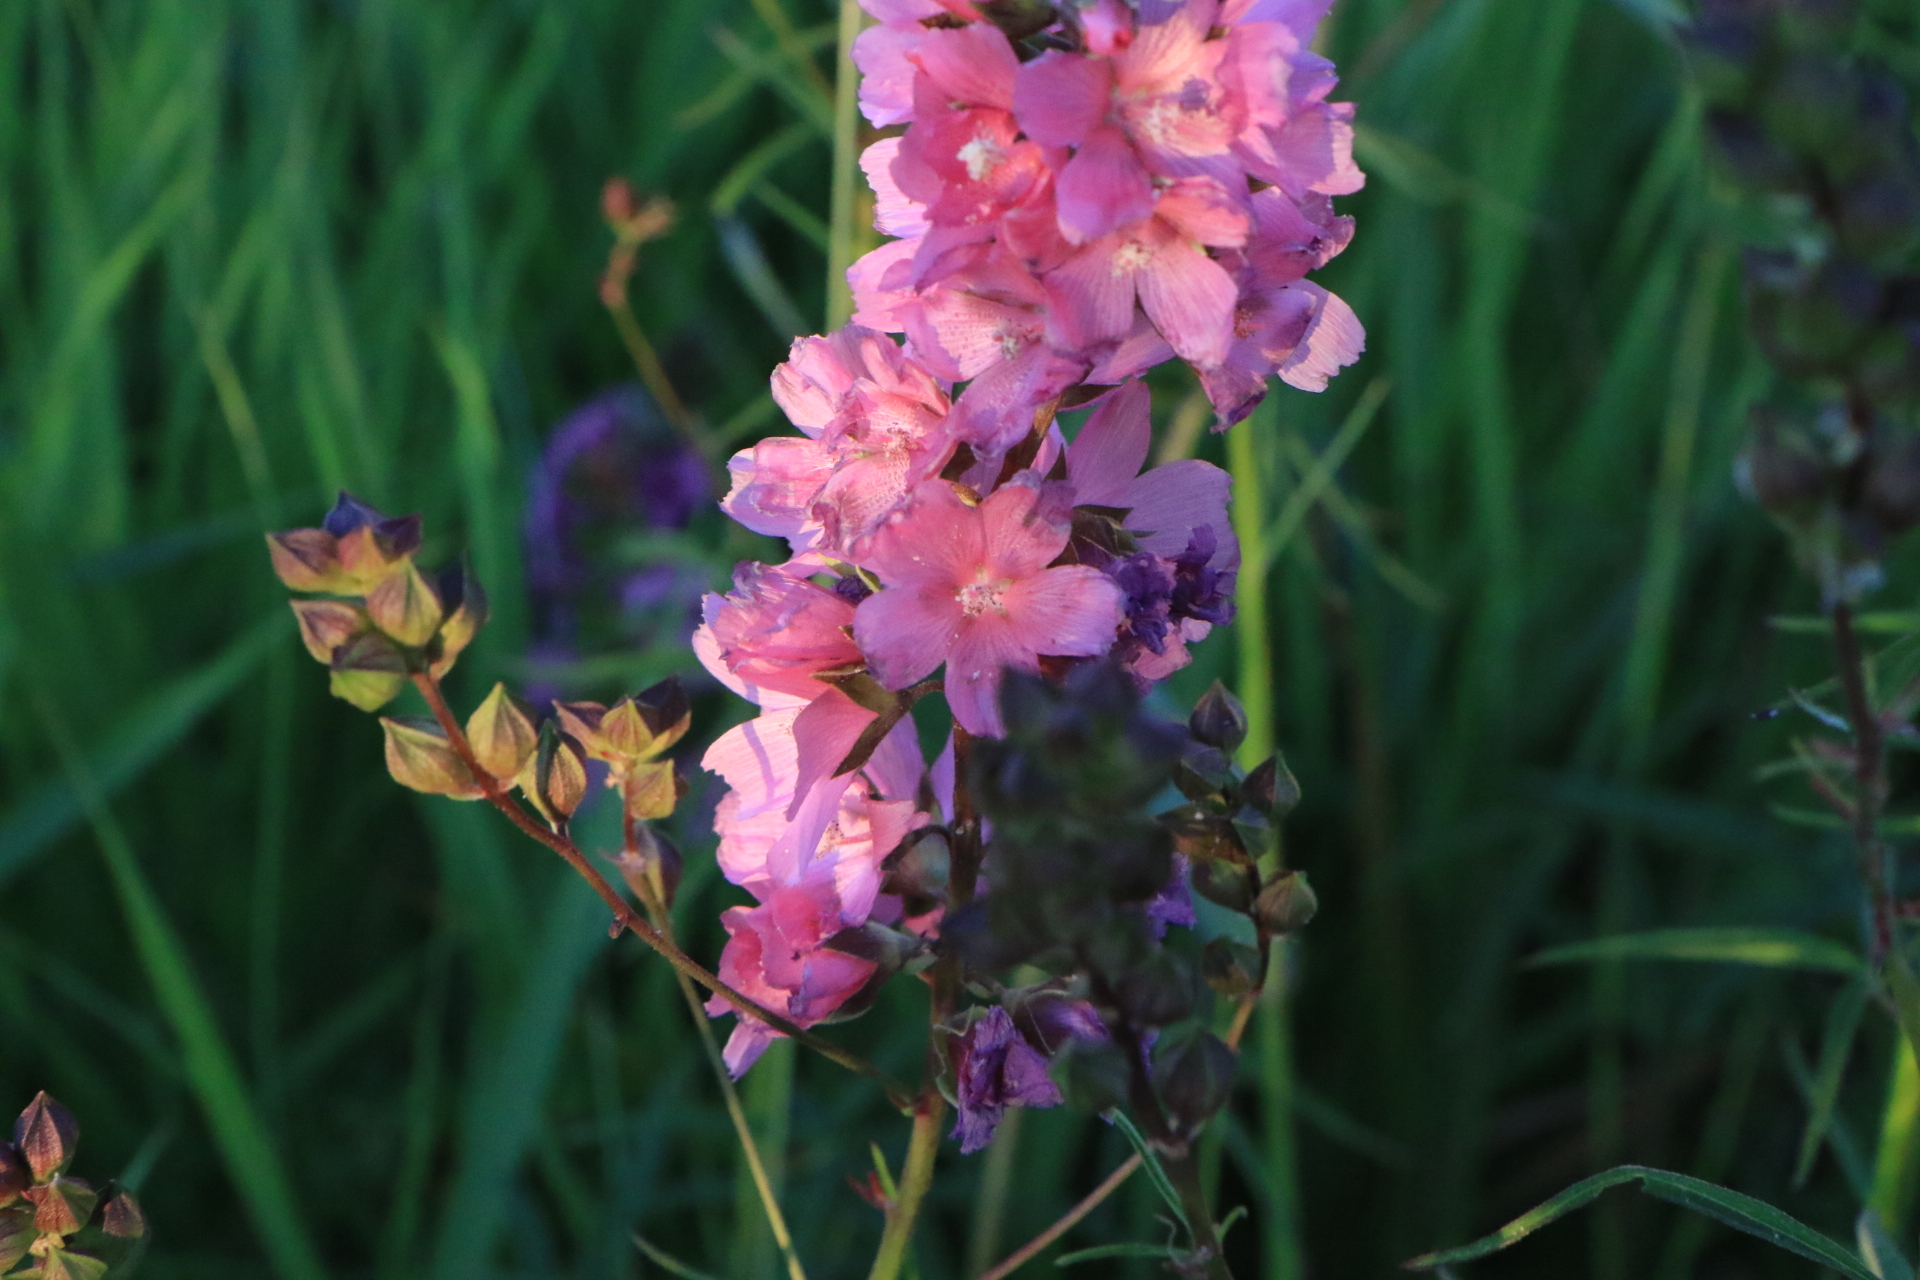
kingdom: Plantae
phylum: Tracheophyta
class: Magnoliopsida
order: Malvales
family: Malvaceae
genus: Sidalcea
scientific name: Sidalcea cusickii
